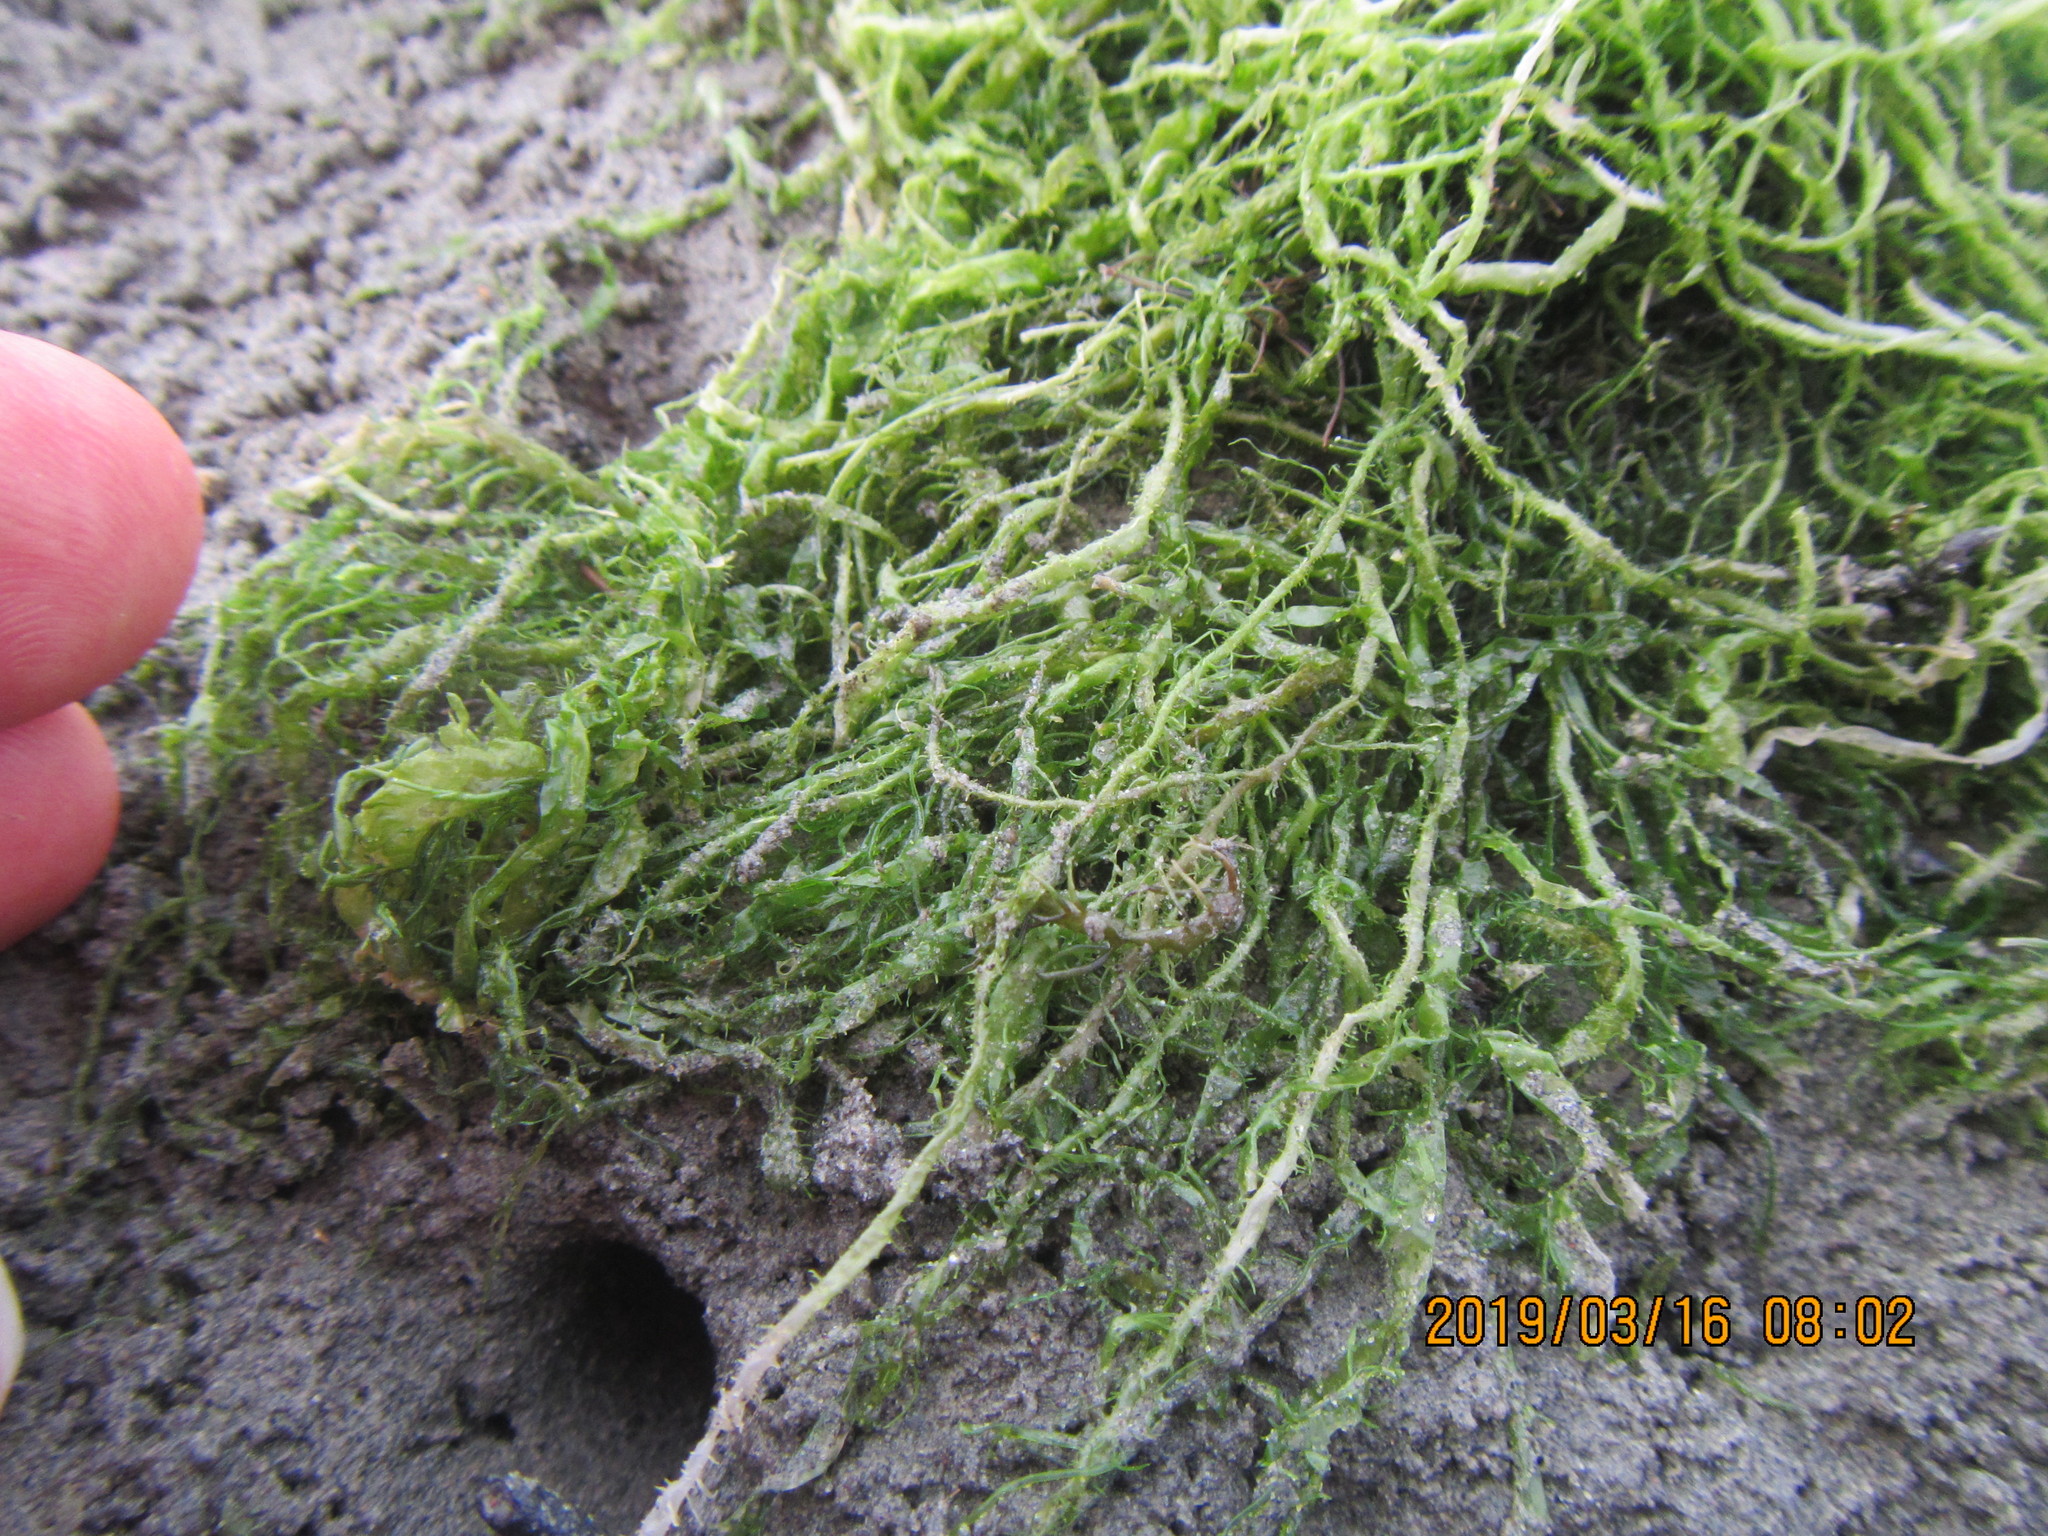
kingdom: Plantae
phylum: Chlorophyta
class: Ulvophyceae
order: Ulvales
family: Ulvaceae
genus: Ulva
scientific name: Ulva intestinalis
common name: Gut weed
